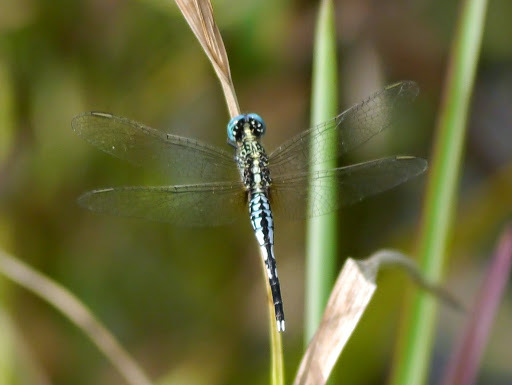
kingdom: Animalia
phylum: Arthropoda
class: Insecta
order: Odonata
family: Libellulidae
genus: Acisoma
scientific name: Acisoma inflatum
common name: Stout pintail
